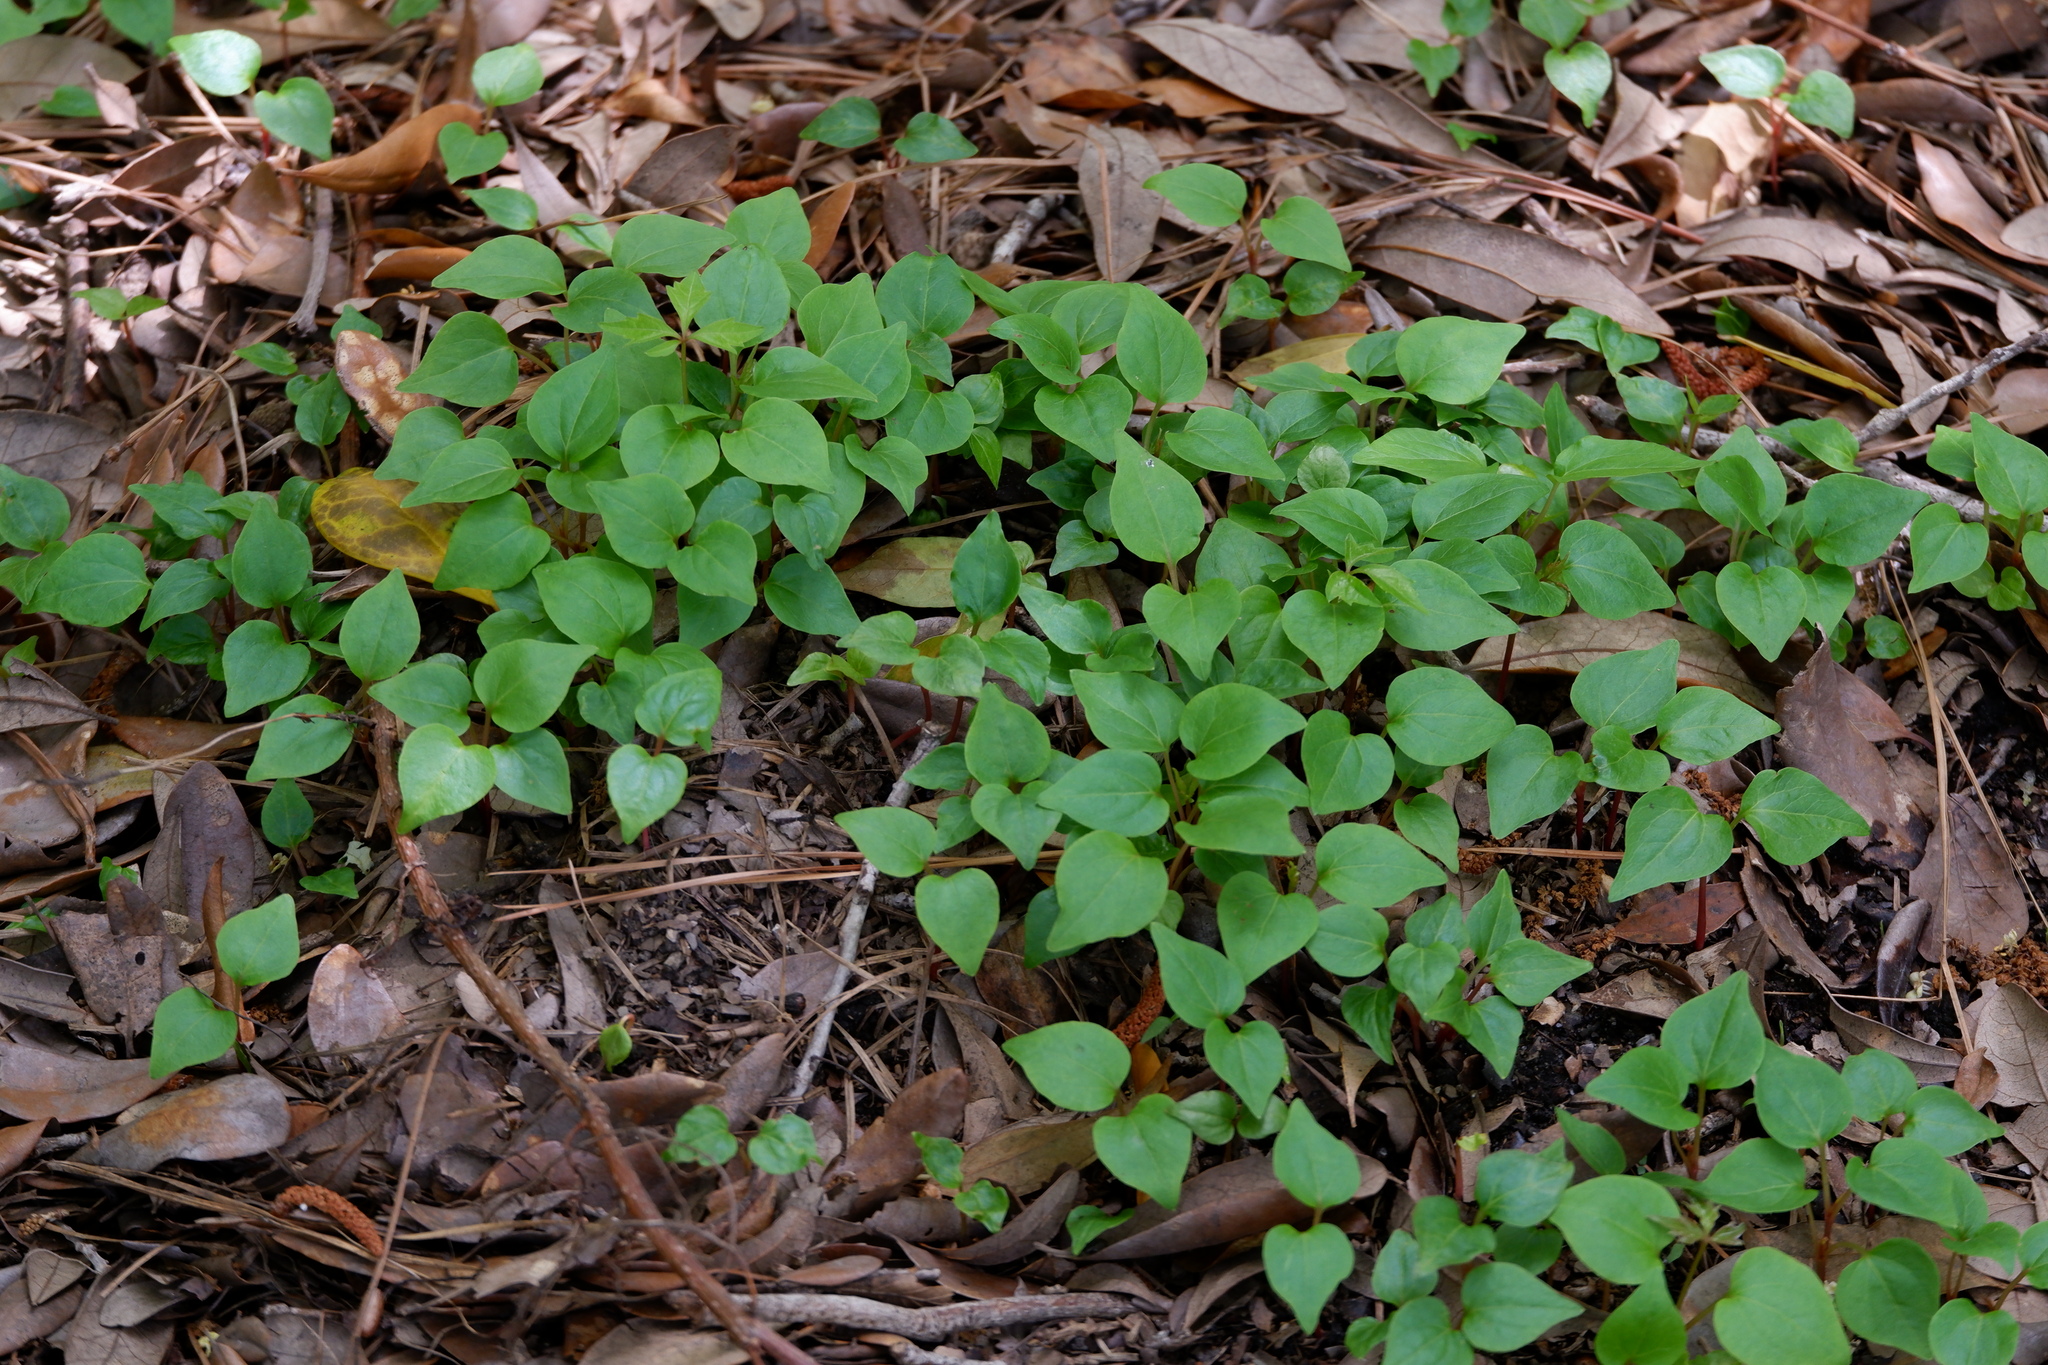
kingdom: Plantae
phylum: Tracheophyta
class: Magnoliopsida
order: Piperales
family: Saururaceae
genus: Houttuynia
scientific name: Houttuynia cordata
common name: Chameleon
